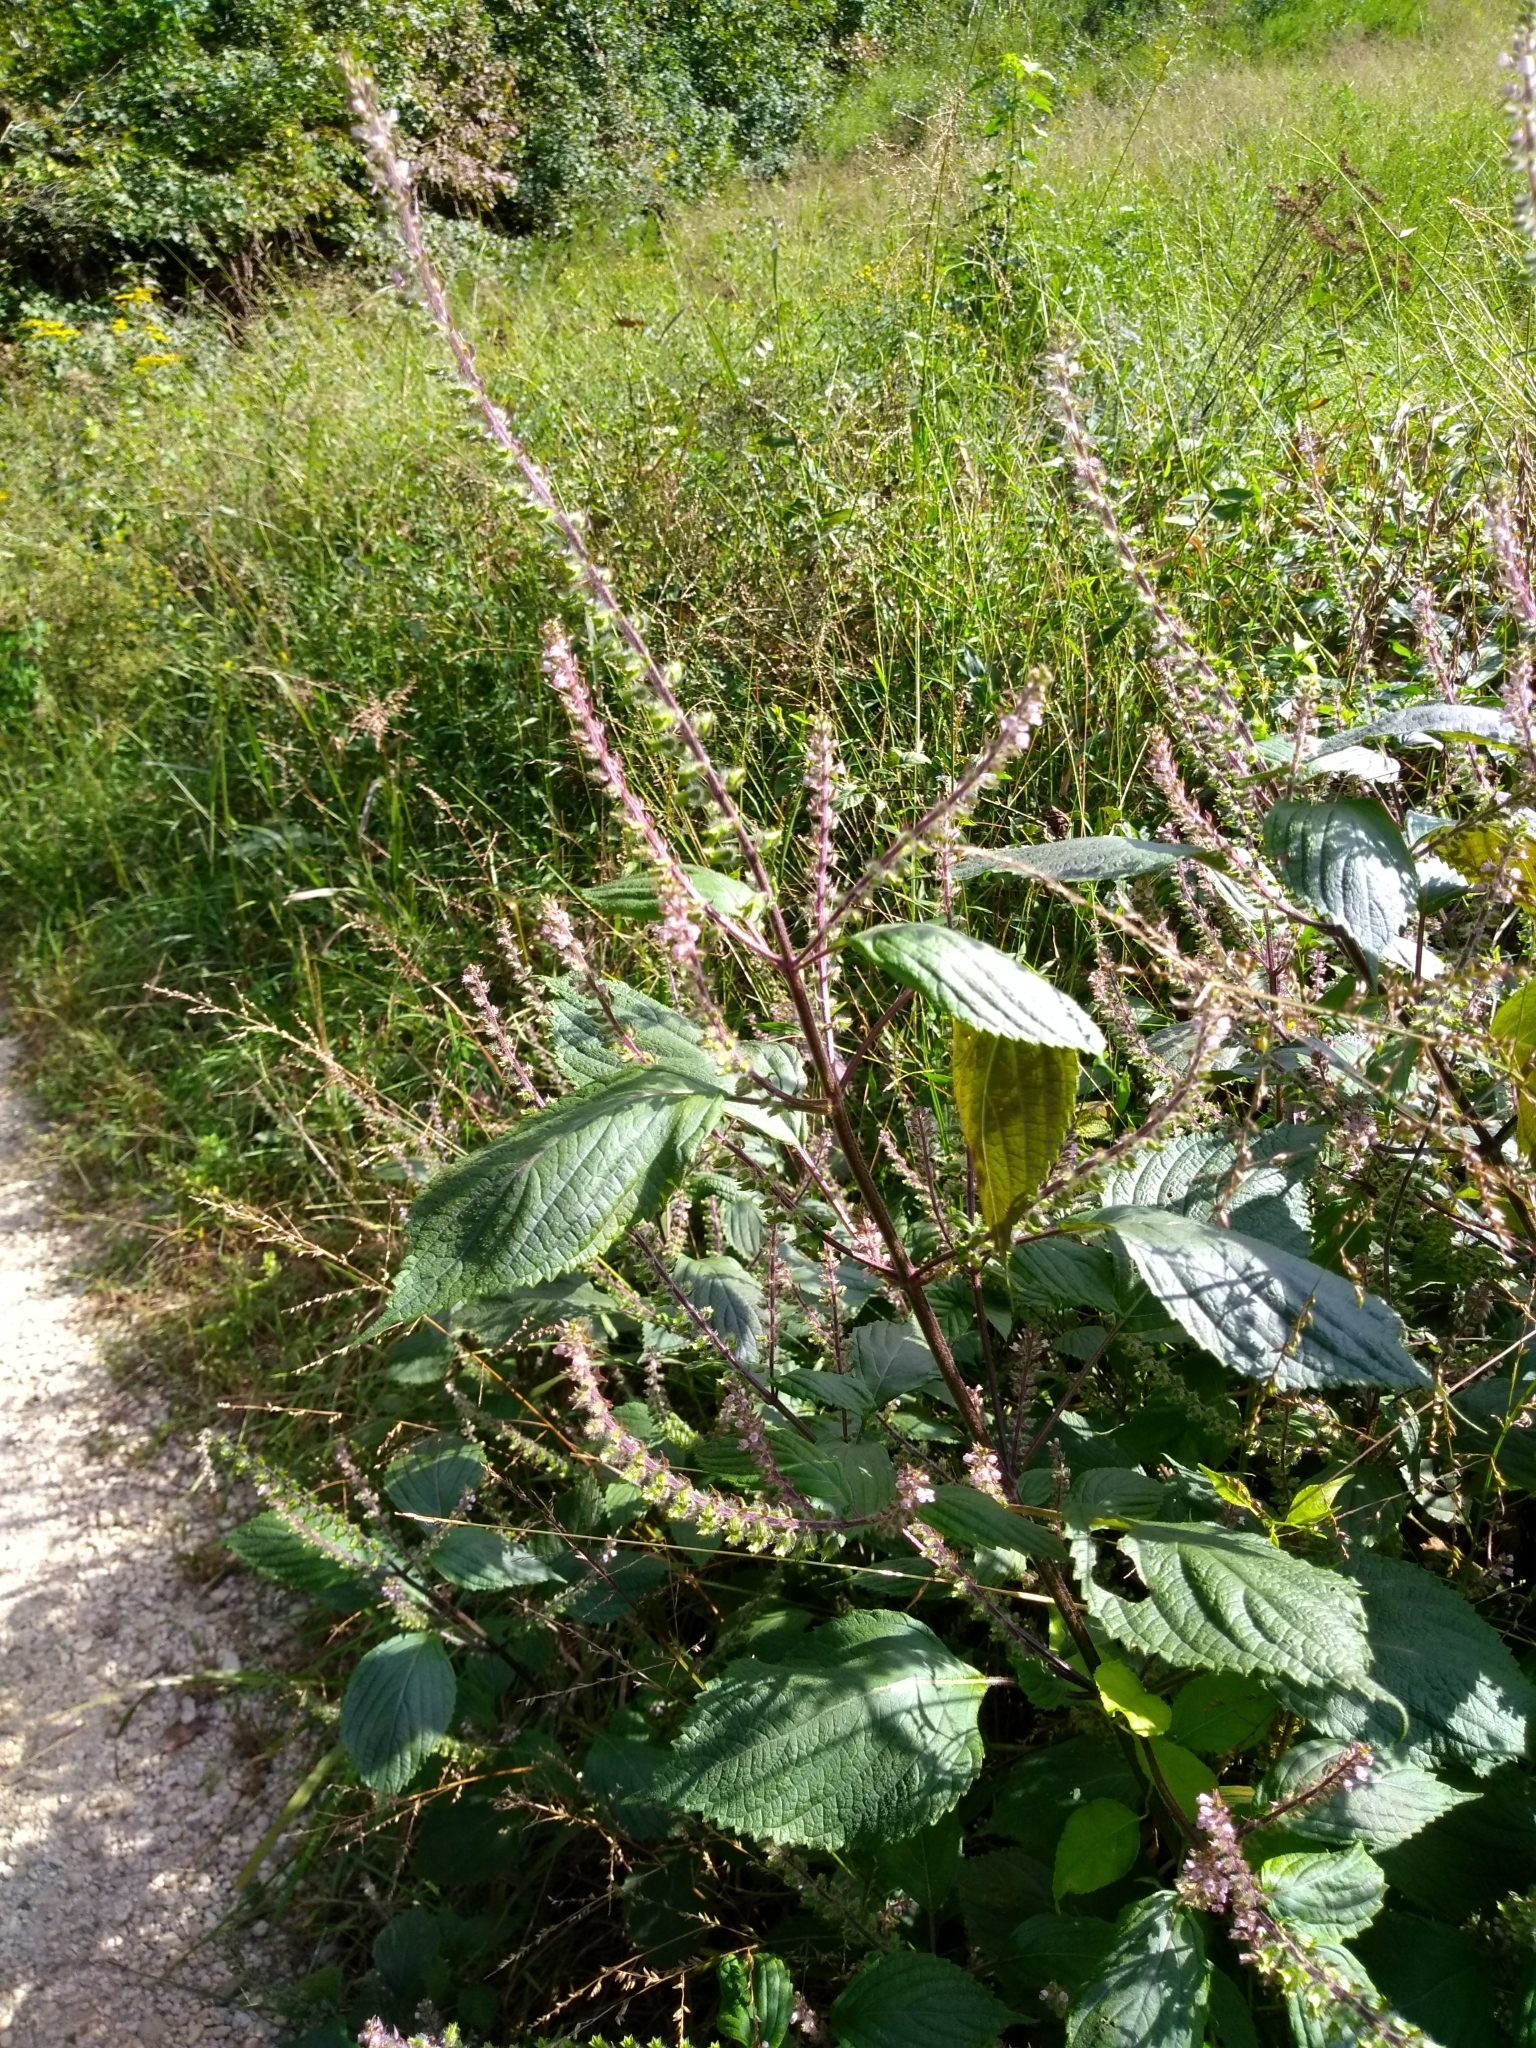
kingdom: Plantae
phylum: Tracheophyta
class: Magnoliopsida
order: Lamiales
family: Lamiaceae
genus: Perilla
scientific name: Perilla frutescens
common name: Perilla
